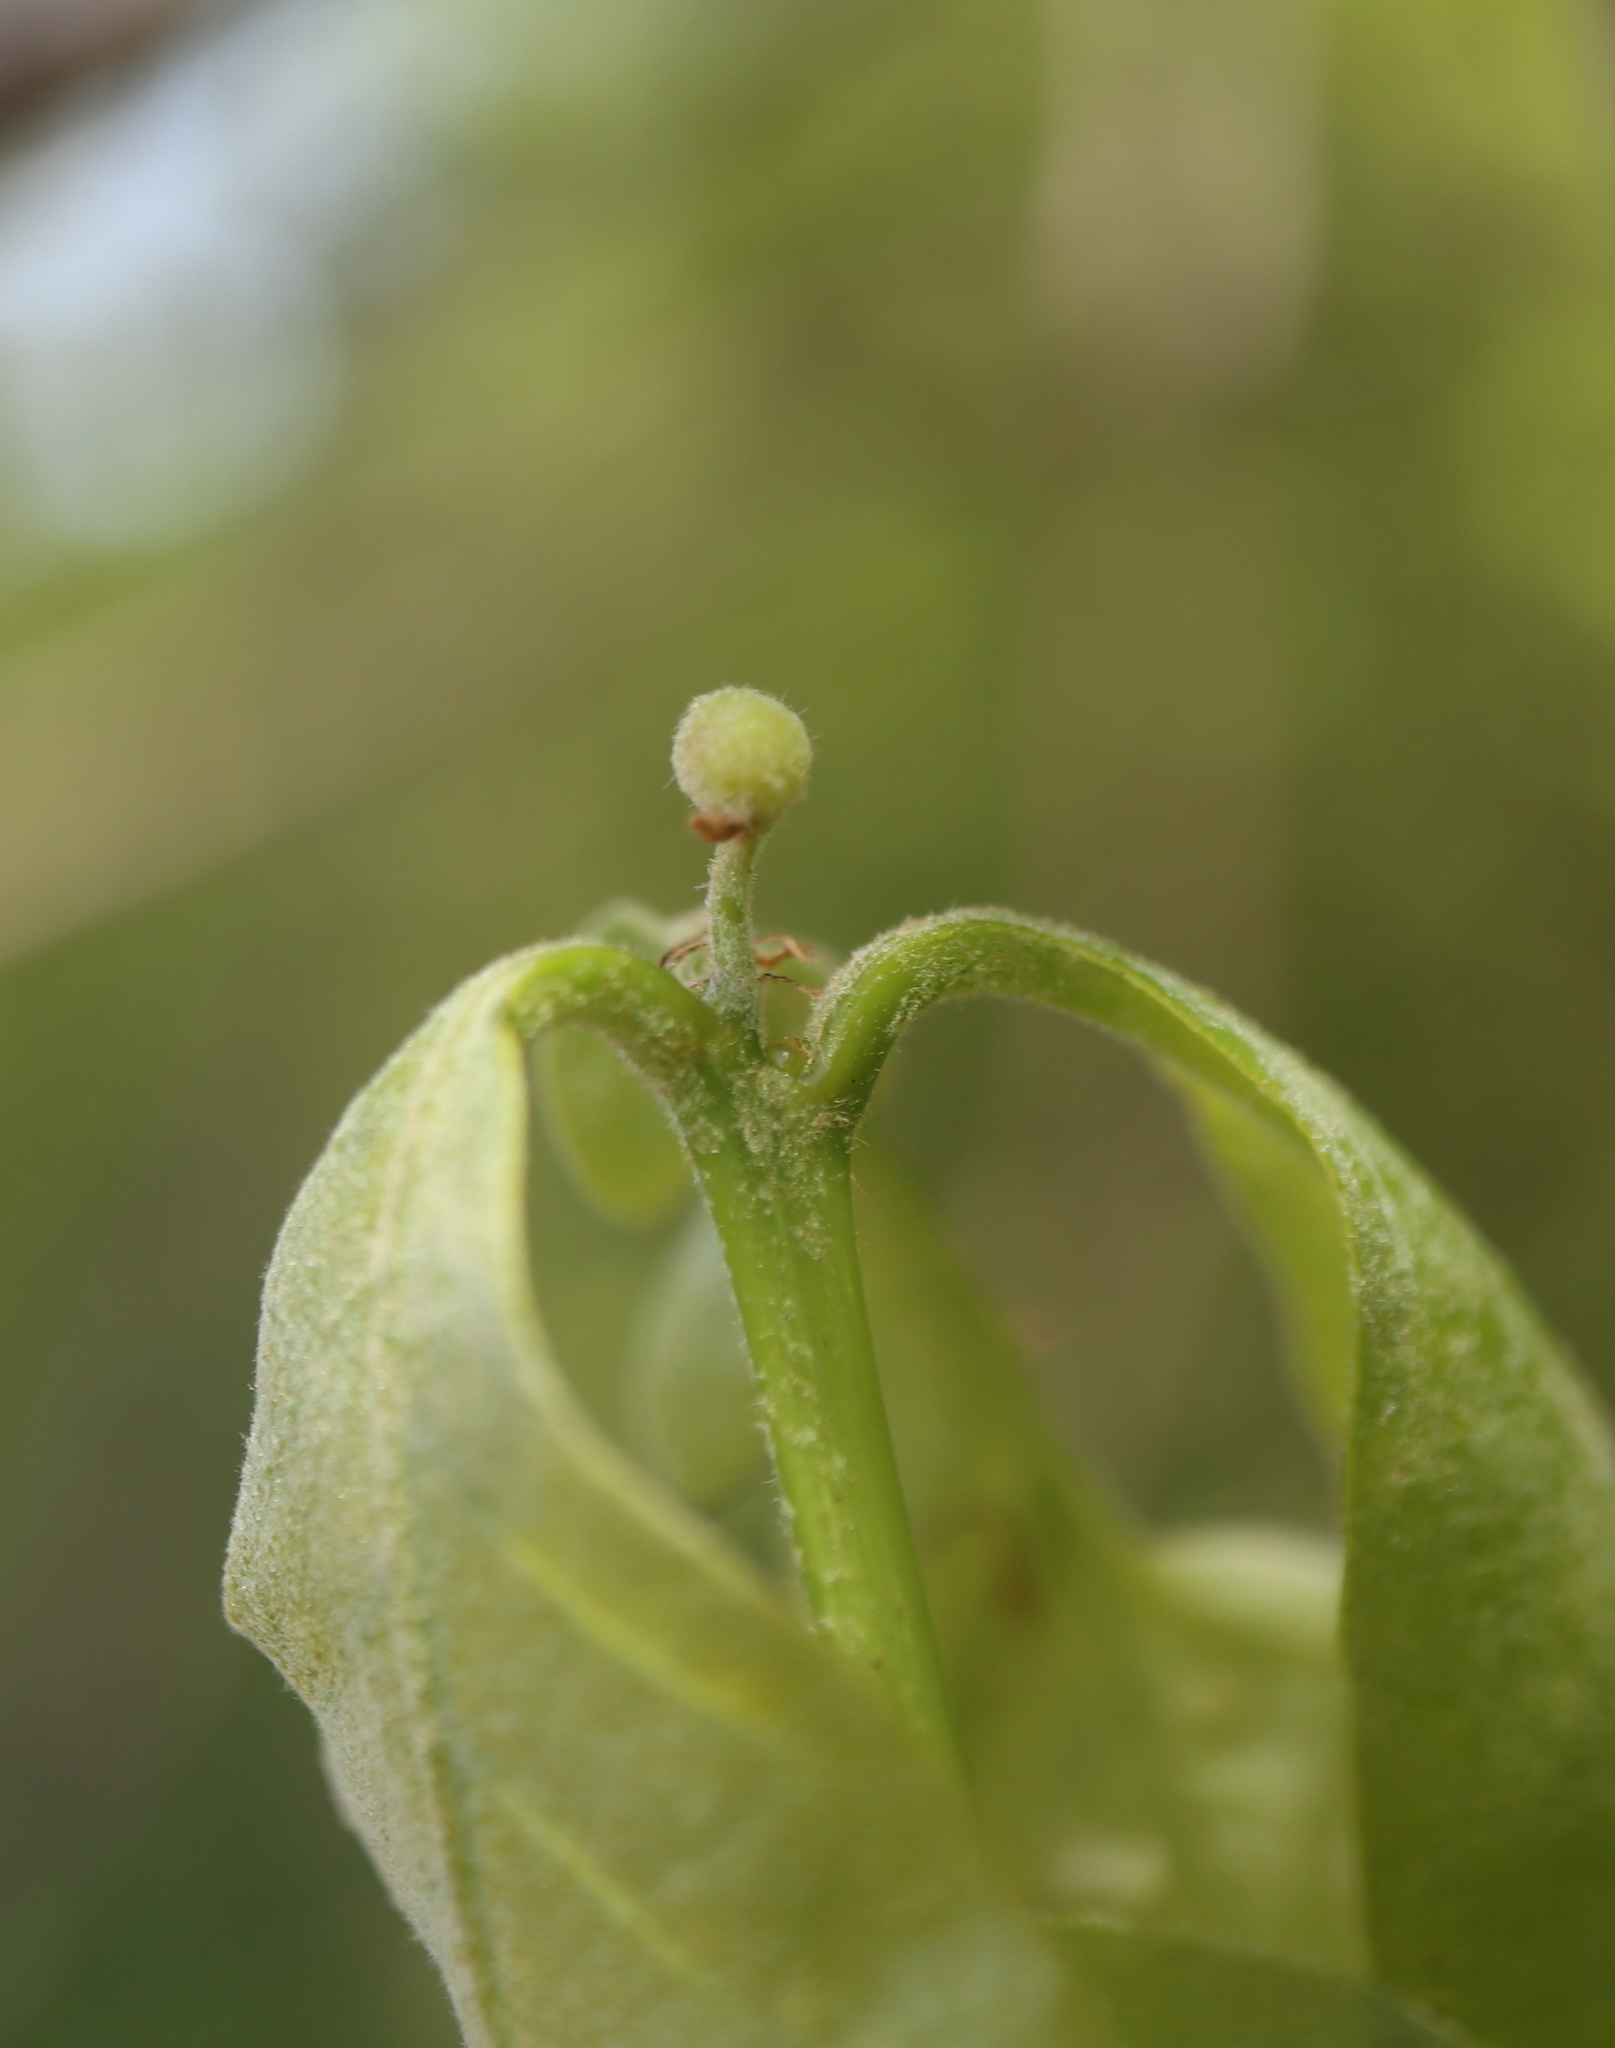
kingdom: Animalia
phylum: Arthropoda
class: Insecta
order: Hymenoptera
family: Cynipidae
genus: Andricus
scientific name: Andricus
